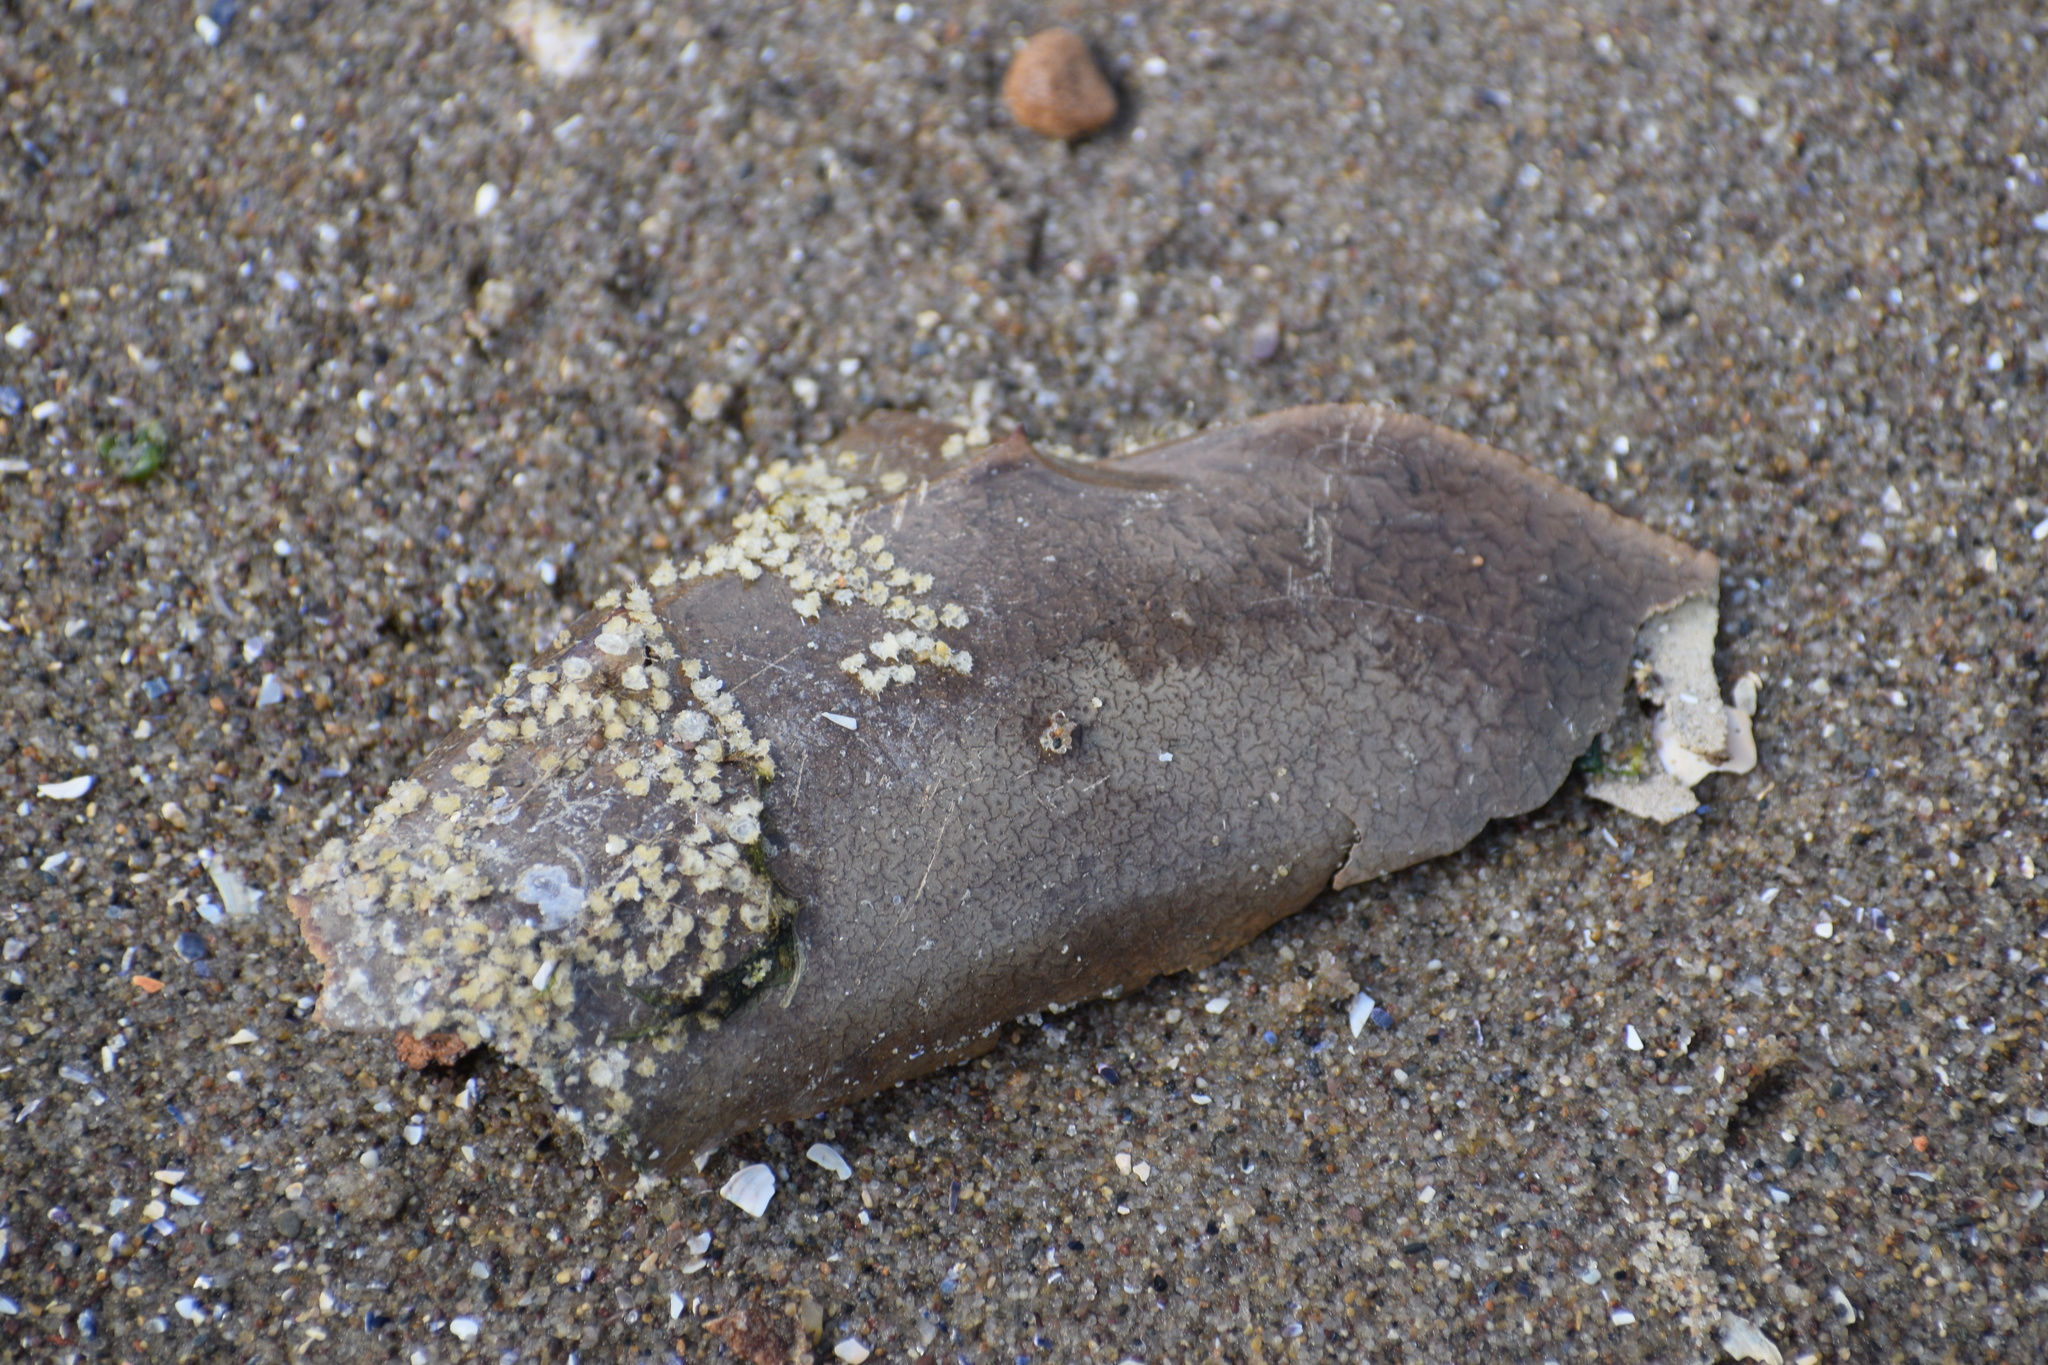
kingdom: Animalia
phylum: Arthropoda
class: Merostomata
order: Xiphosurida
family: Limulidae
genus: Limulus
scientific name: Limulus polyphemus
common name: Horseshoe crab
